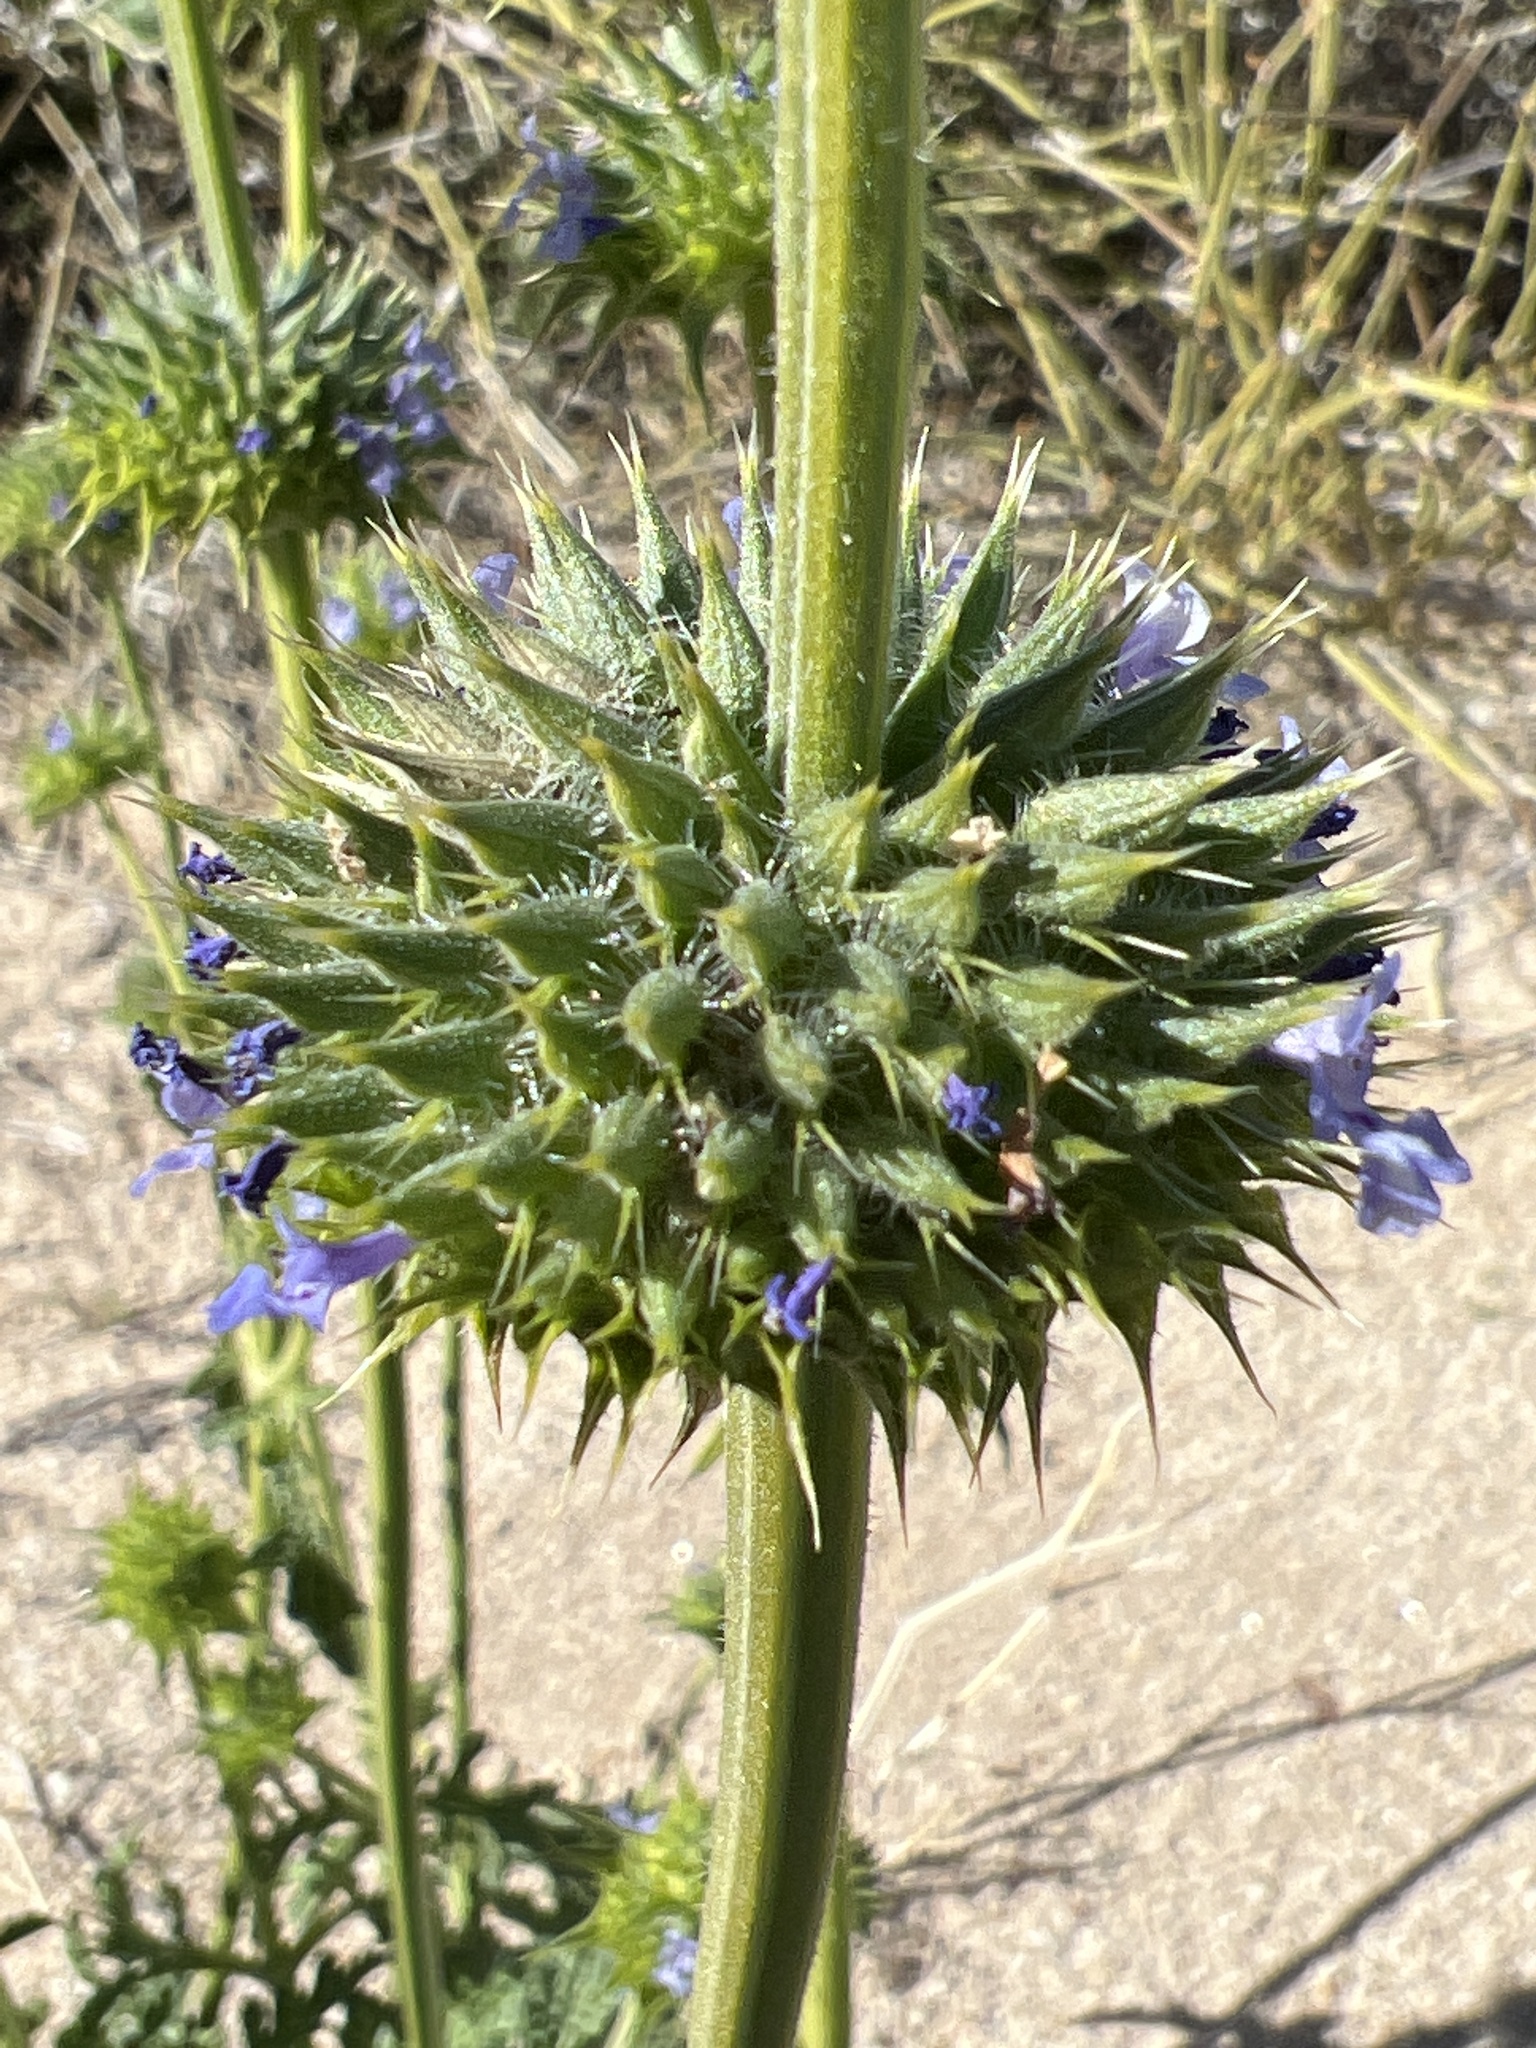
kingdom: Plantae
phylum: Tracheophyta
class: Magnoliopsida
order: Lamiales
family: Lamiaceae
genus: Salvia
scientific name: Salvia columbariae
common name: Chia
